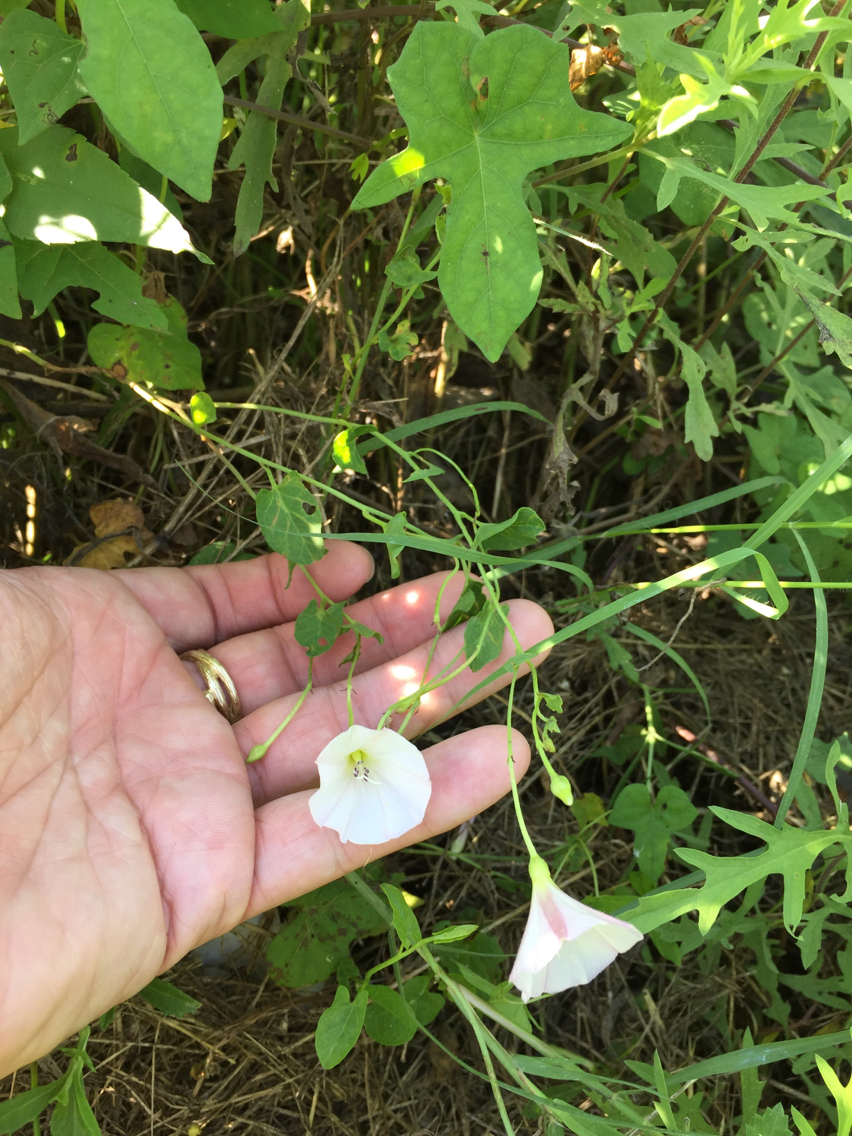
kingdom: Plantae
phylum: Tracheophyta
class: Magnoliopsida
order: Solanales
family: Convolvulaceae
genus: Convolvulus
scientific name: Convolvulus arvensis
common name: Field bindweed
